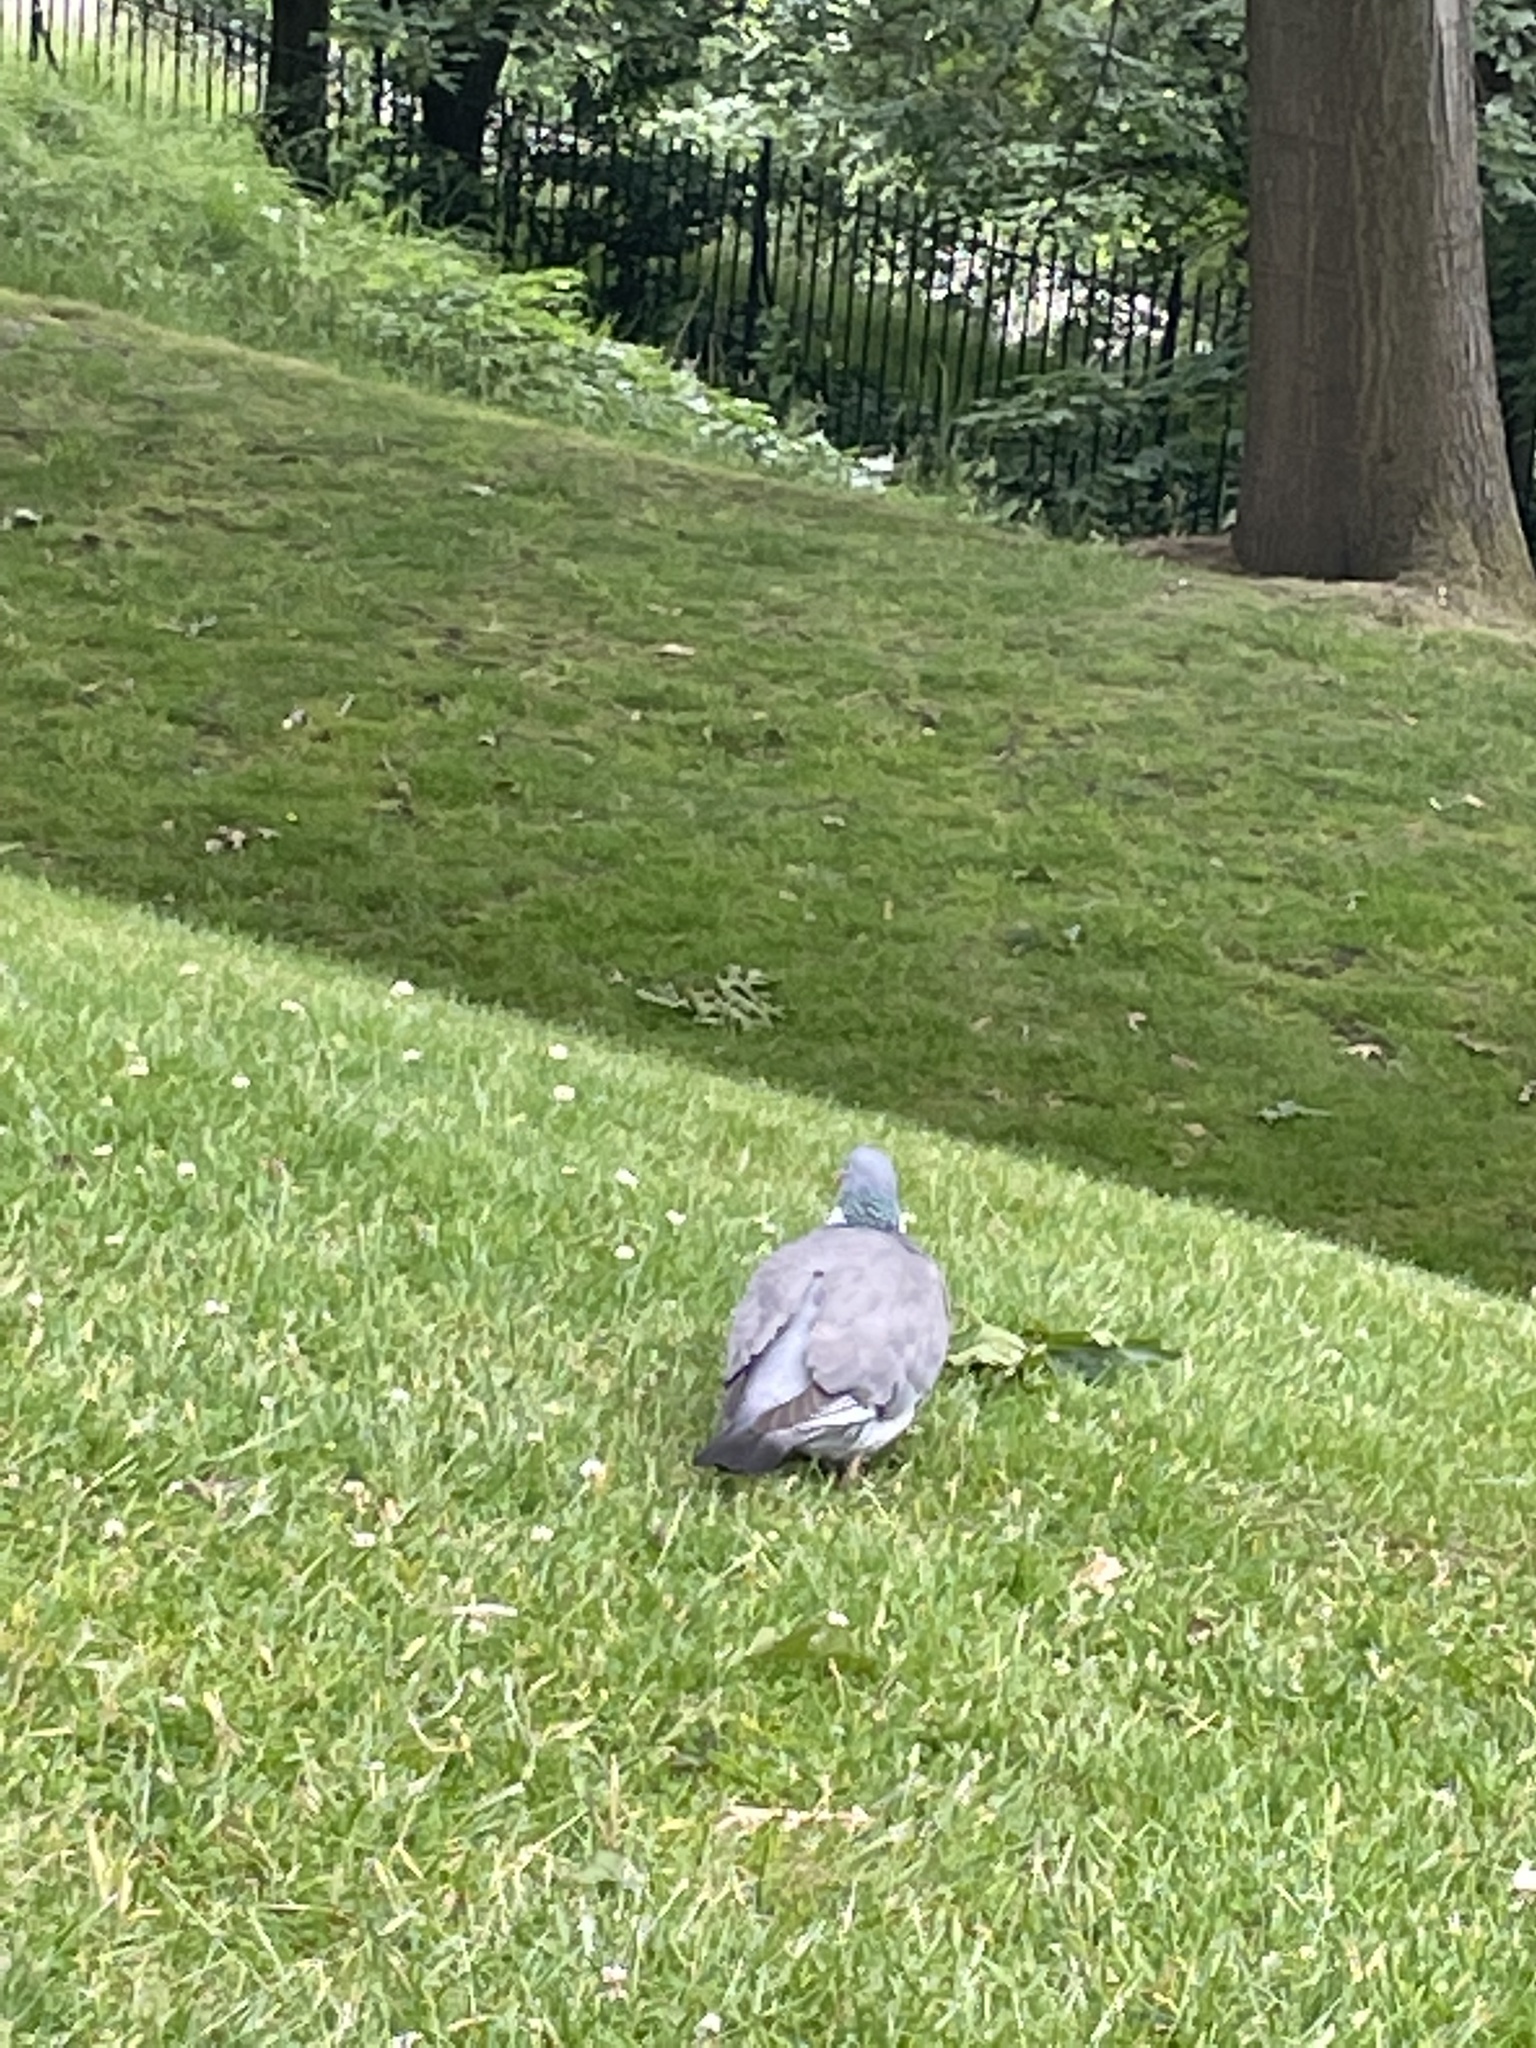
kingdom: Animalia
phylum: Chordata
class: Aves
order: Columbiformes
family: Columbidae
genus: Columba
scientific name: Columba palumbus
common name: Common wood pigeon
